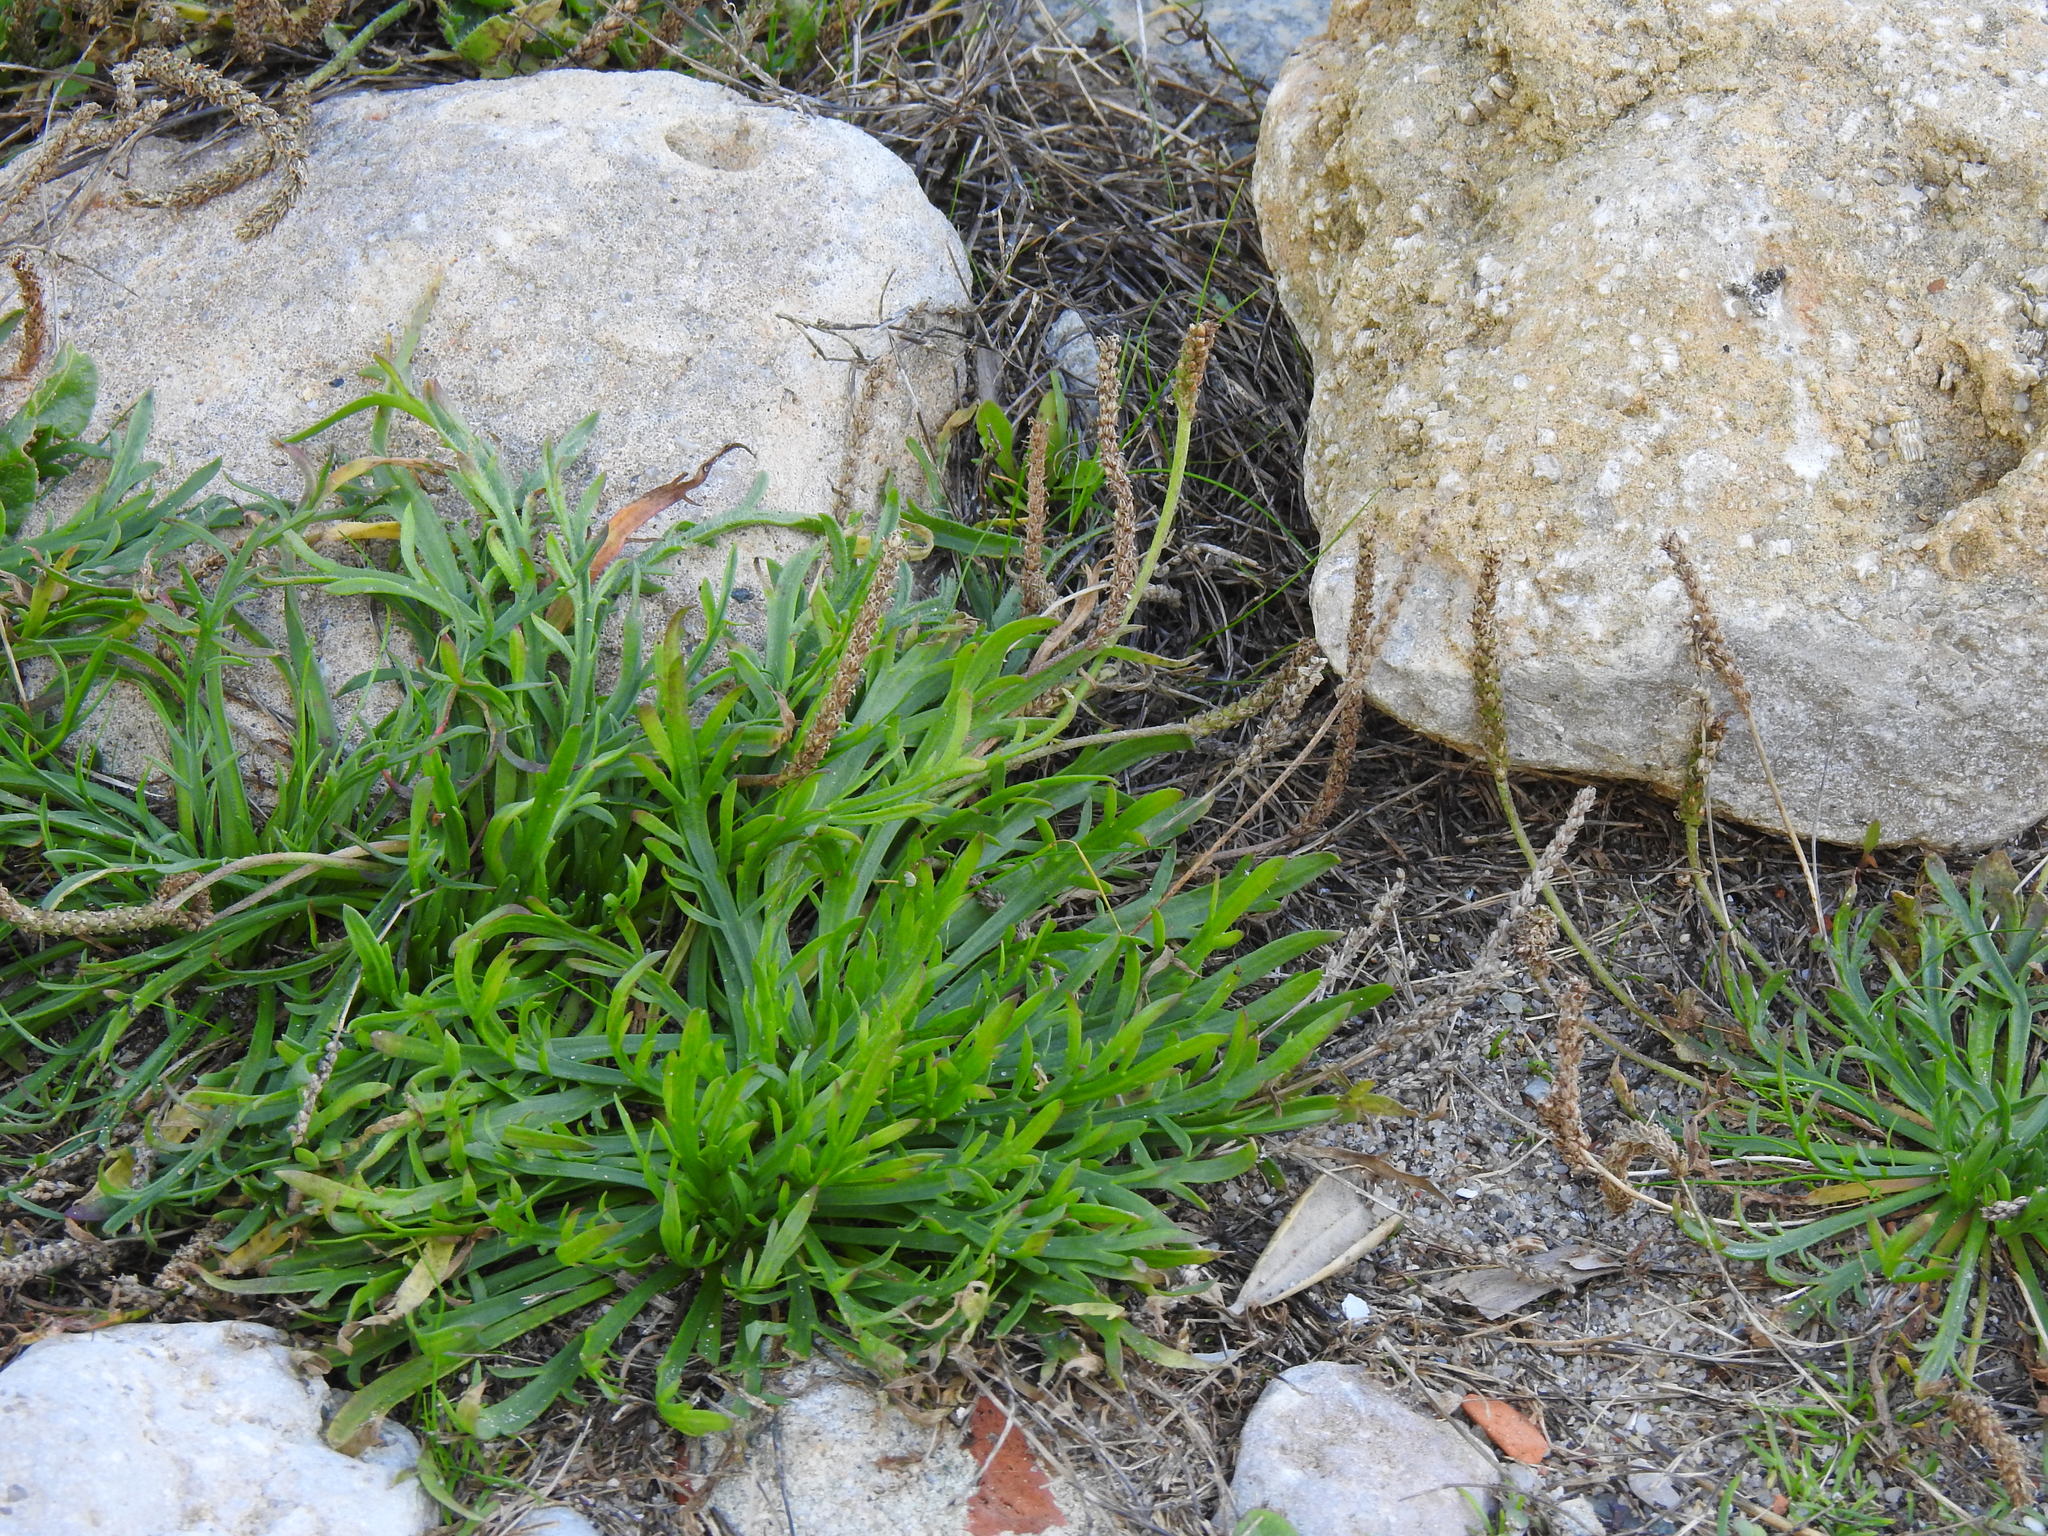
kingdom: Plantae
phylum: Tracheophyta
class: Magnoliopsida
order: Lamiales
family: Plantaginaceae
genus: Plantago
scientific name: Plantago coronopus
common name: Buck's-horn plantain
